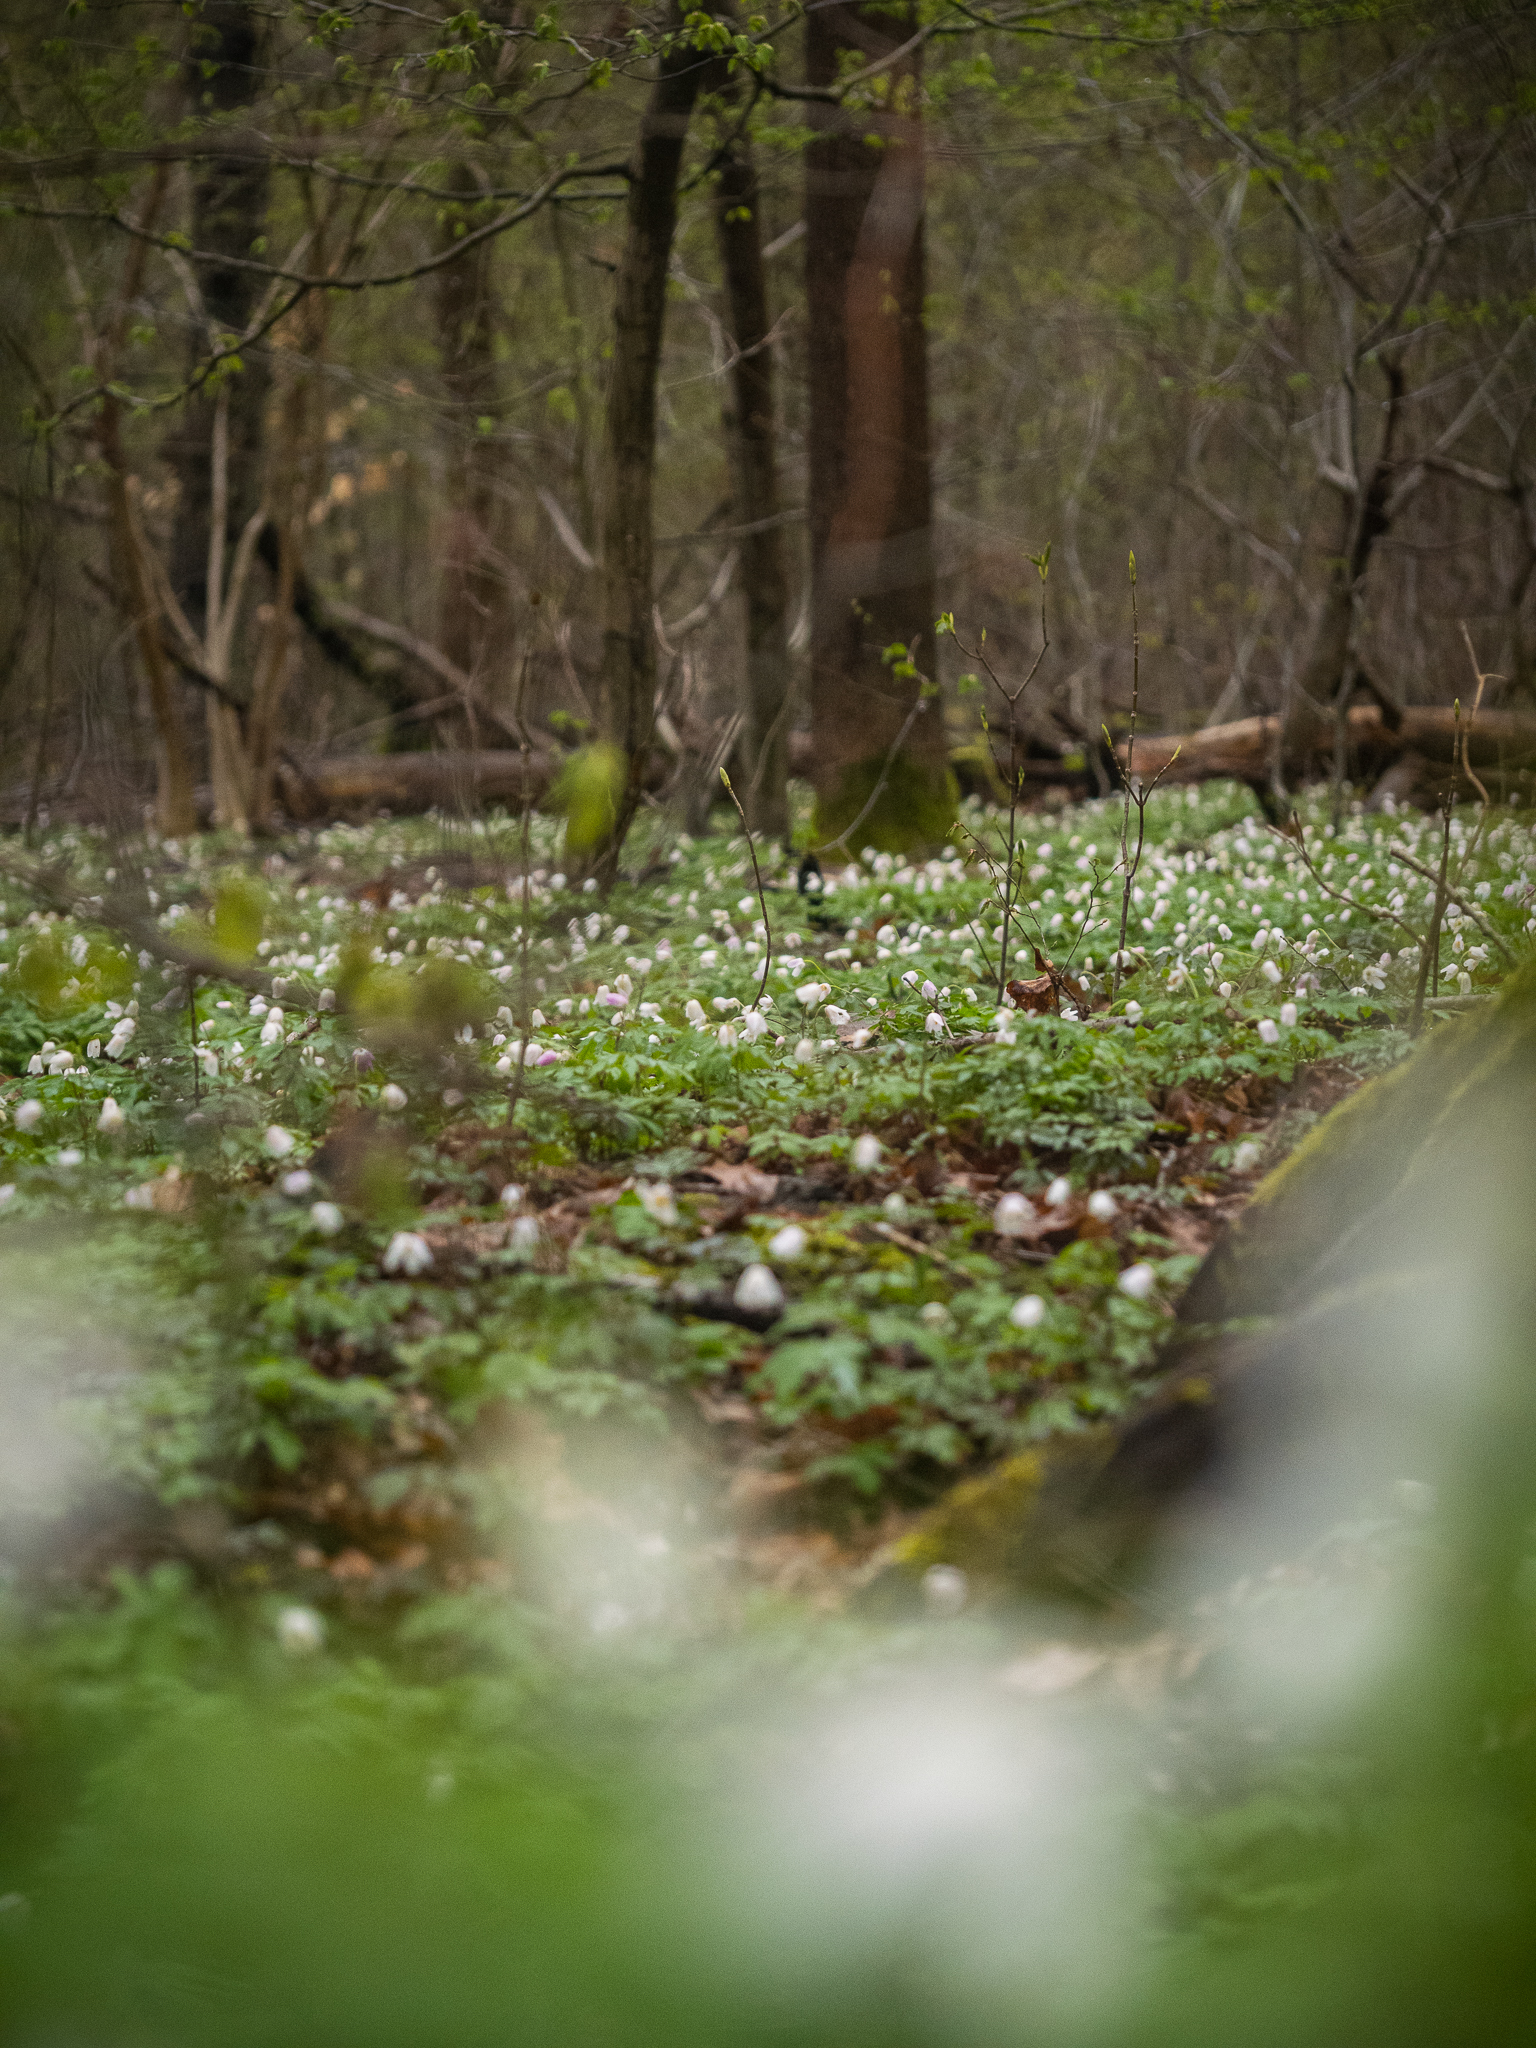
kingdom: Plantae
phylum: Tracheophyta
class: Magnoliopsida
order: Ranunculales
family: Ranunculaceae
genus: Anemone
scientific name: Anemone nemorosa
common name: Wood anemone
